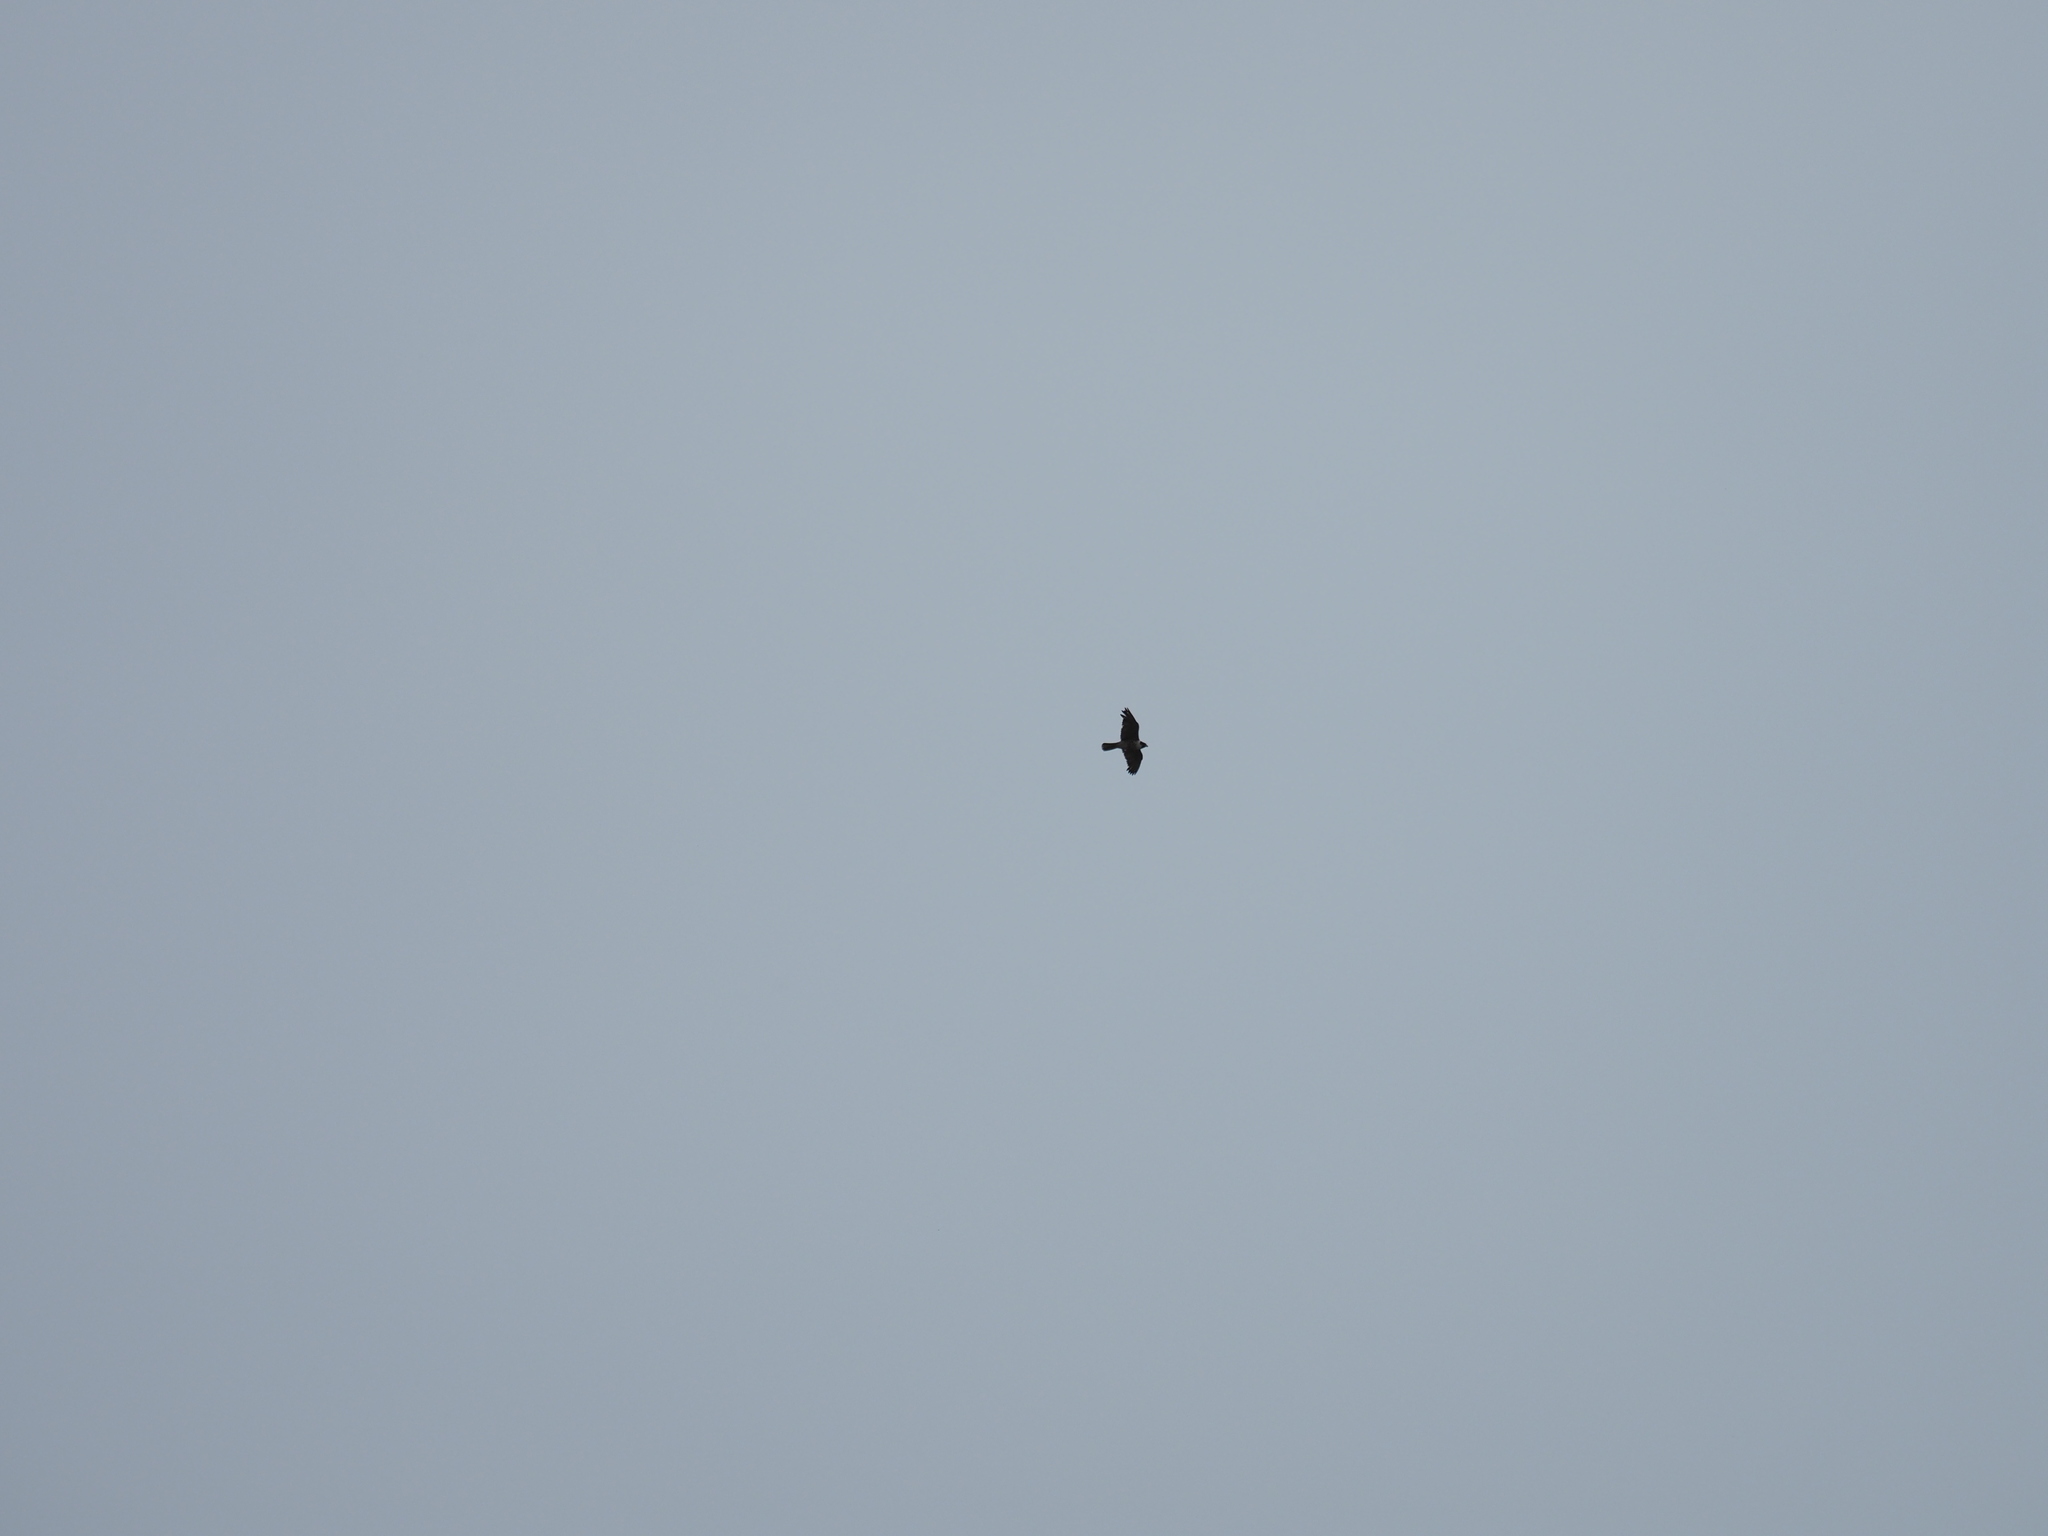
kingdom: Animalia
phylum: Chordata
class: Aves
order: Falconiformes
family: Falconidae
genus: Falco
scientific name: Falco peregrinus
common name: Peregrine falcon
